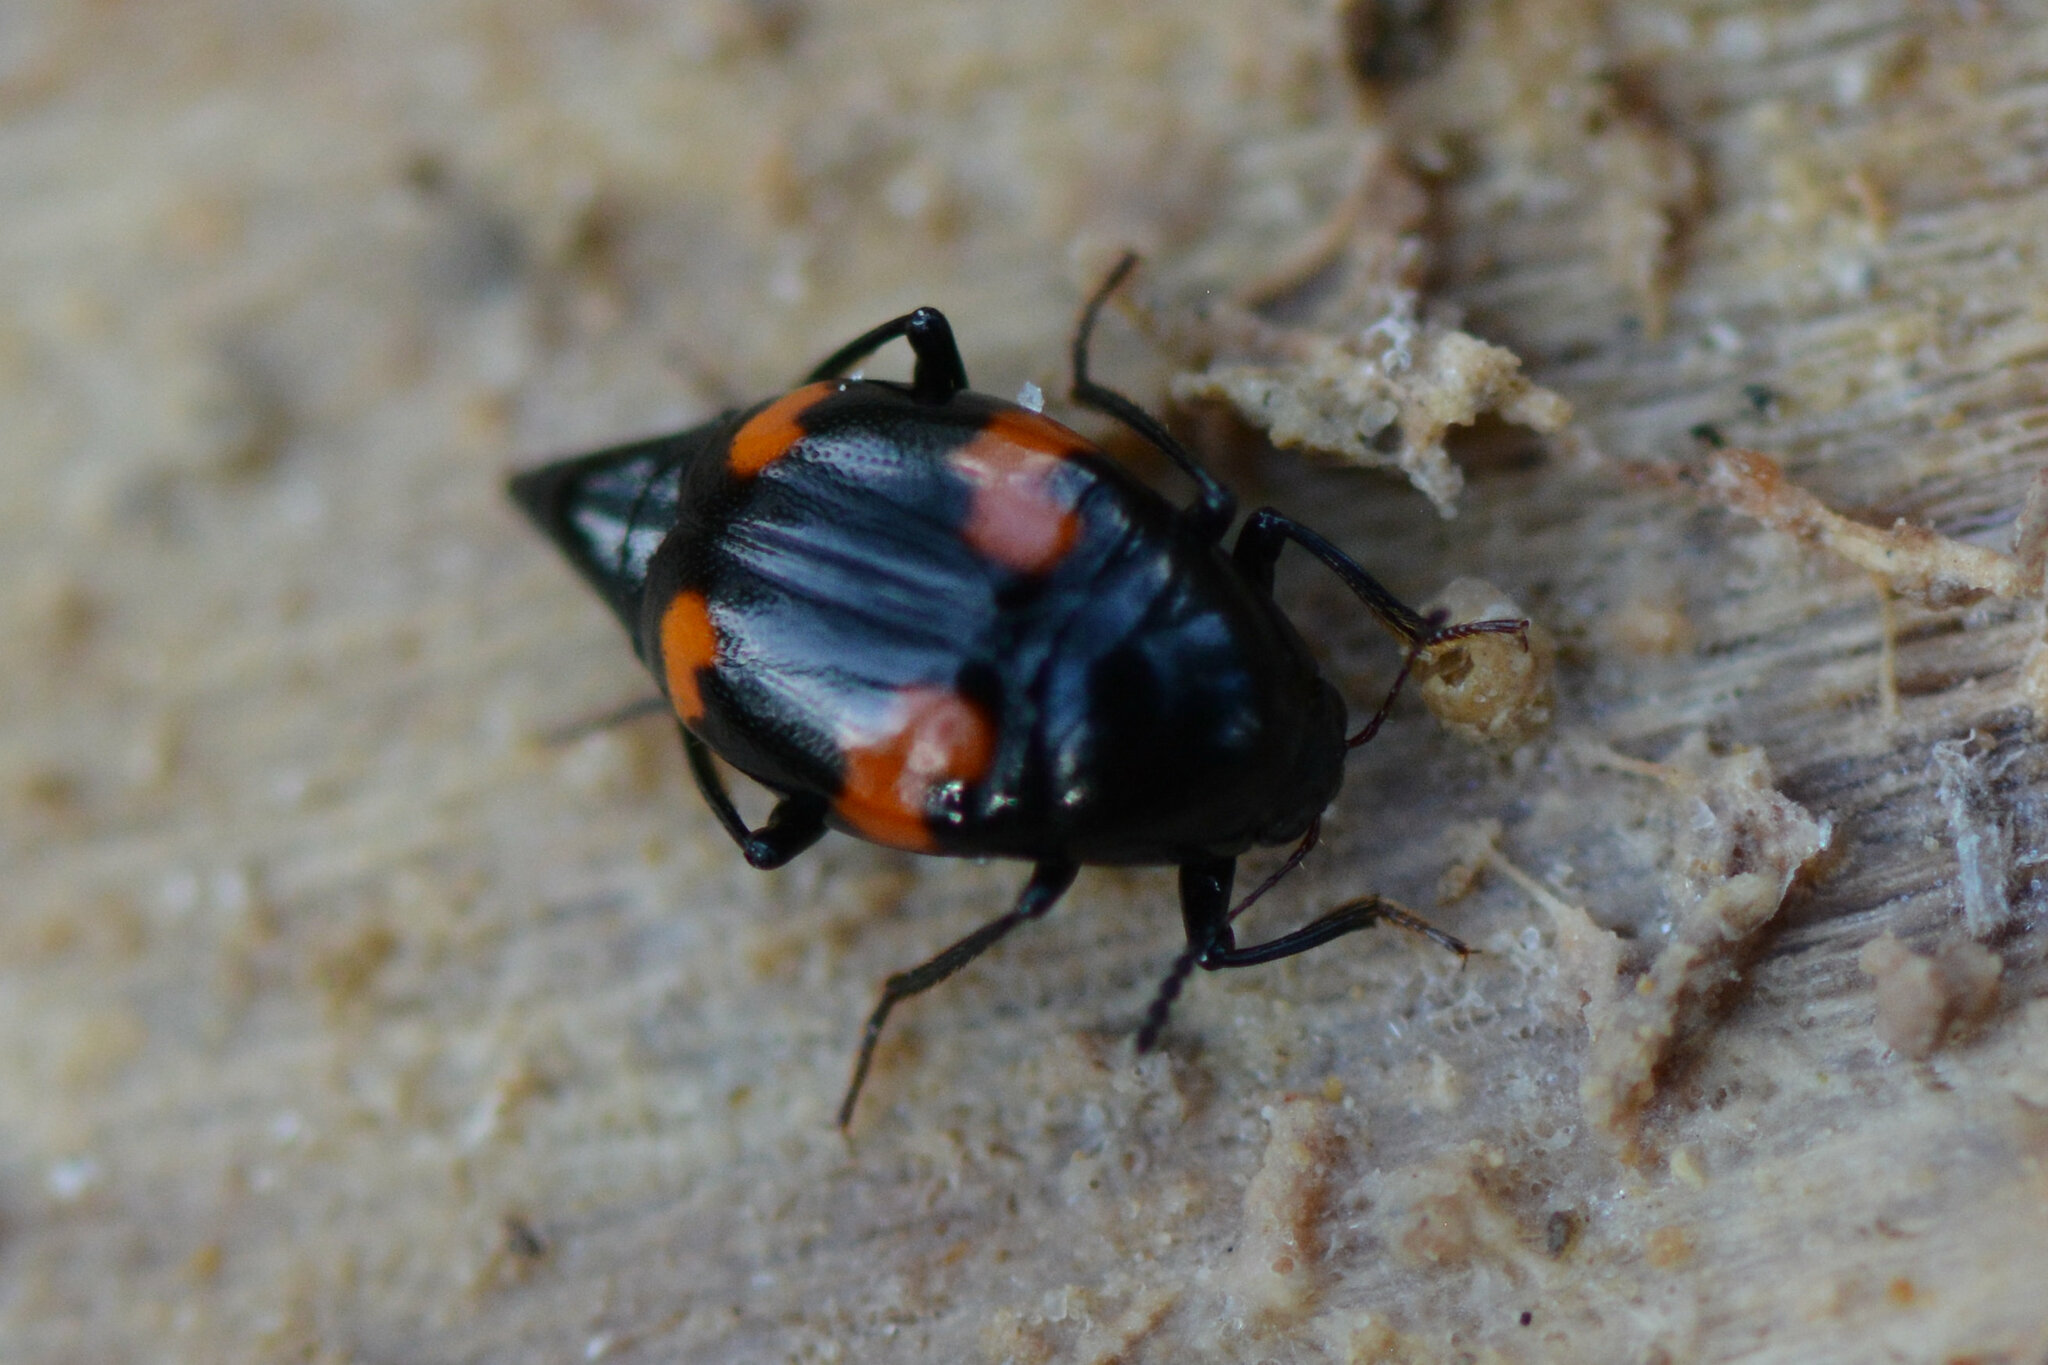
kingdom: Animalia
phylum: Arthropoda
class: Insecta
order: Coleoptera
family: Staphylinidae
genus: Scaphidium
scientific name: Scaphidium quadrimaculatum
